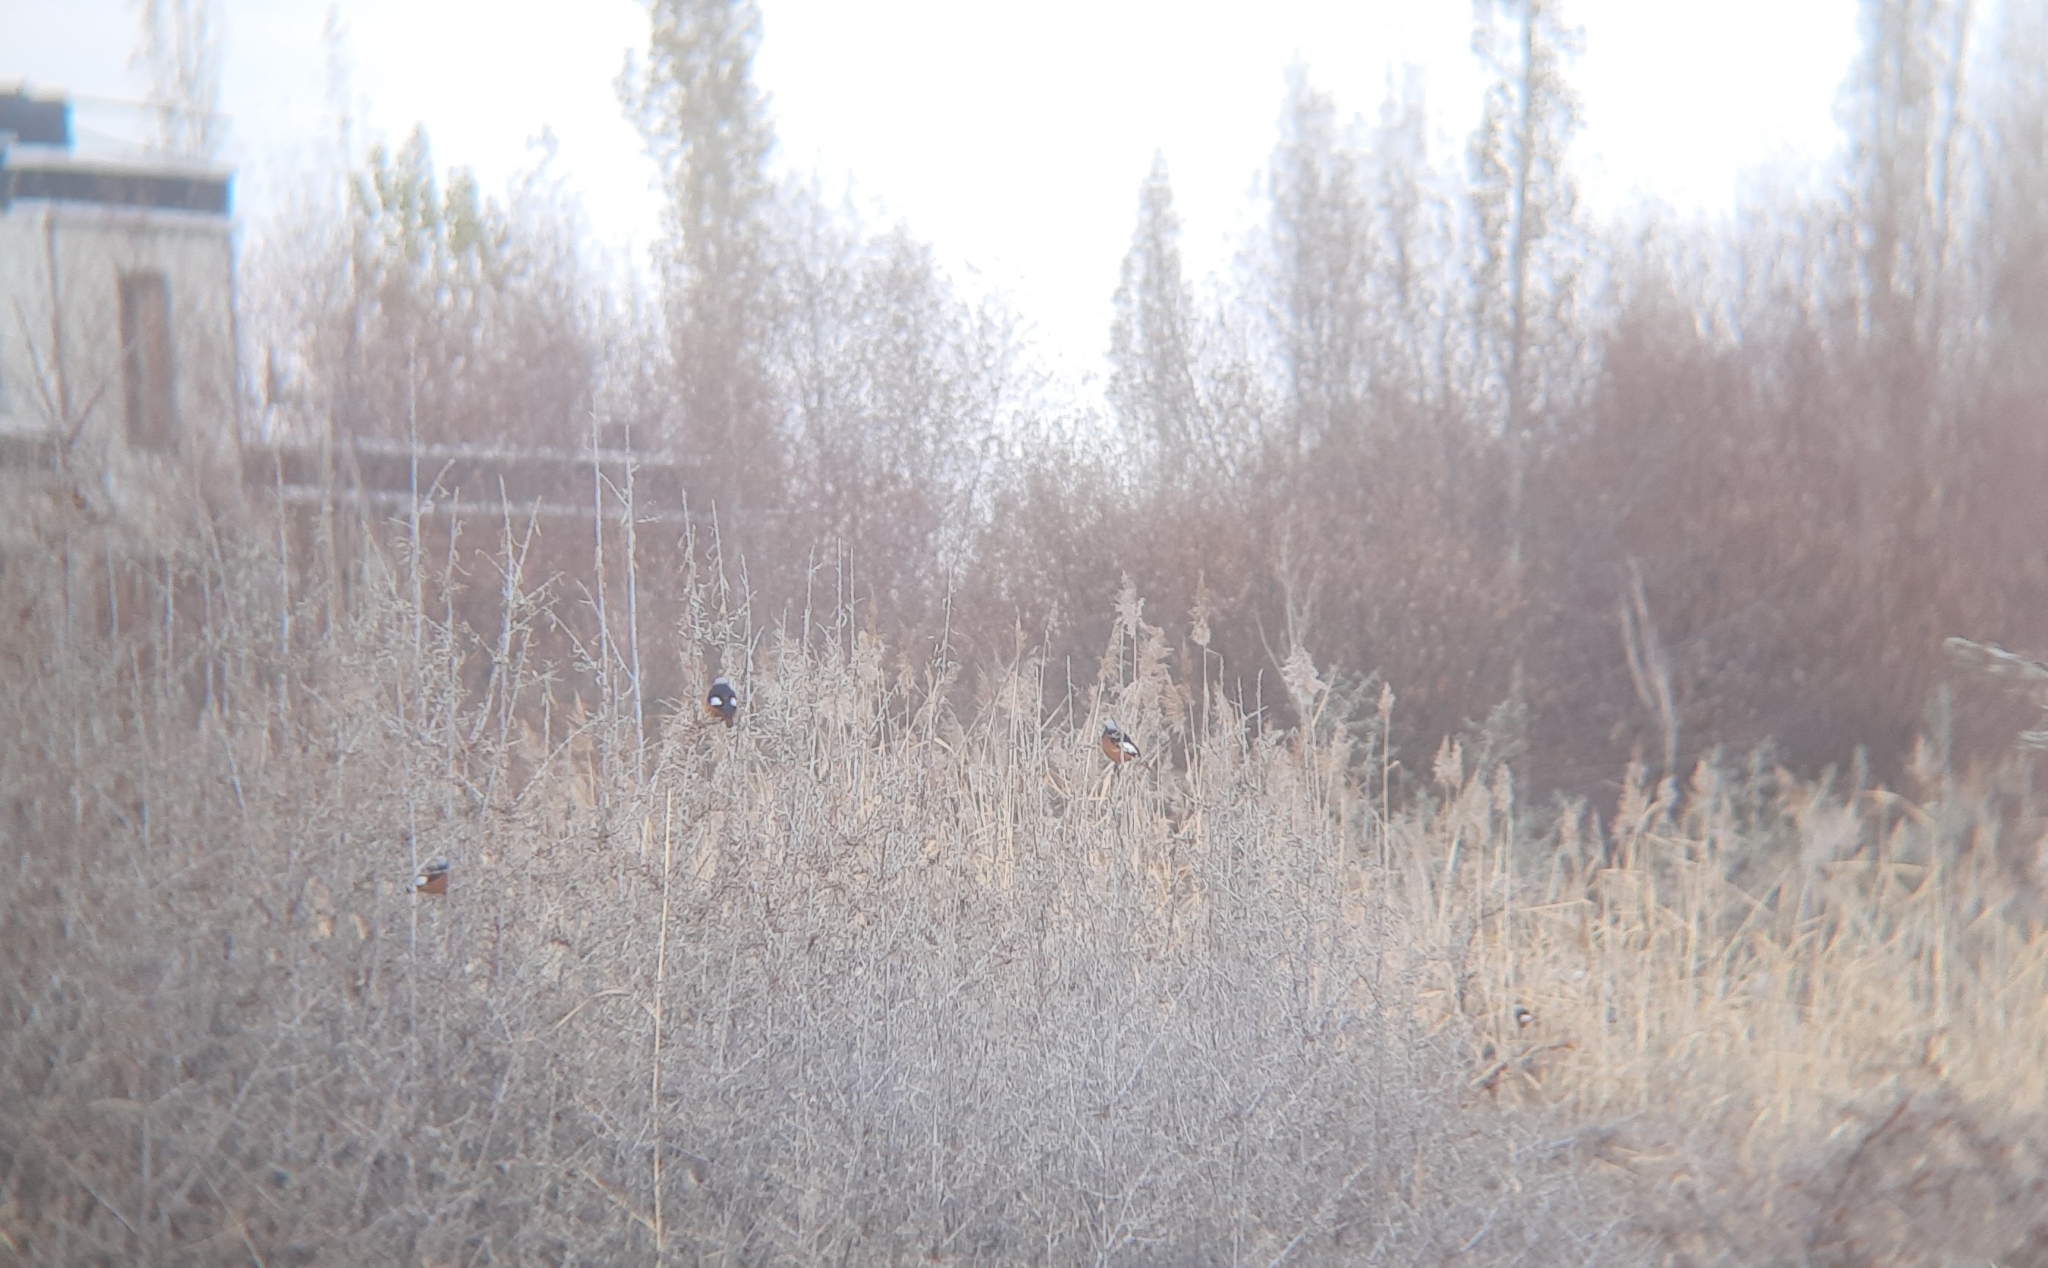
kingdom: Animalia
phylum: Chordata
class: Aves
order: Passeriformes
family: Muscicapidae
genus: Phoenicurus
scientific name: Phoenicurus erythrogastrus
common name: Güldenstädt's redstart
